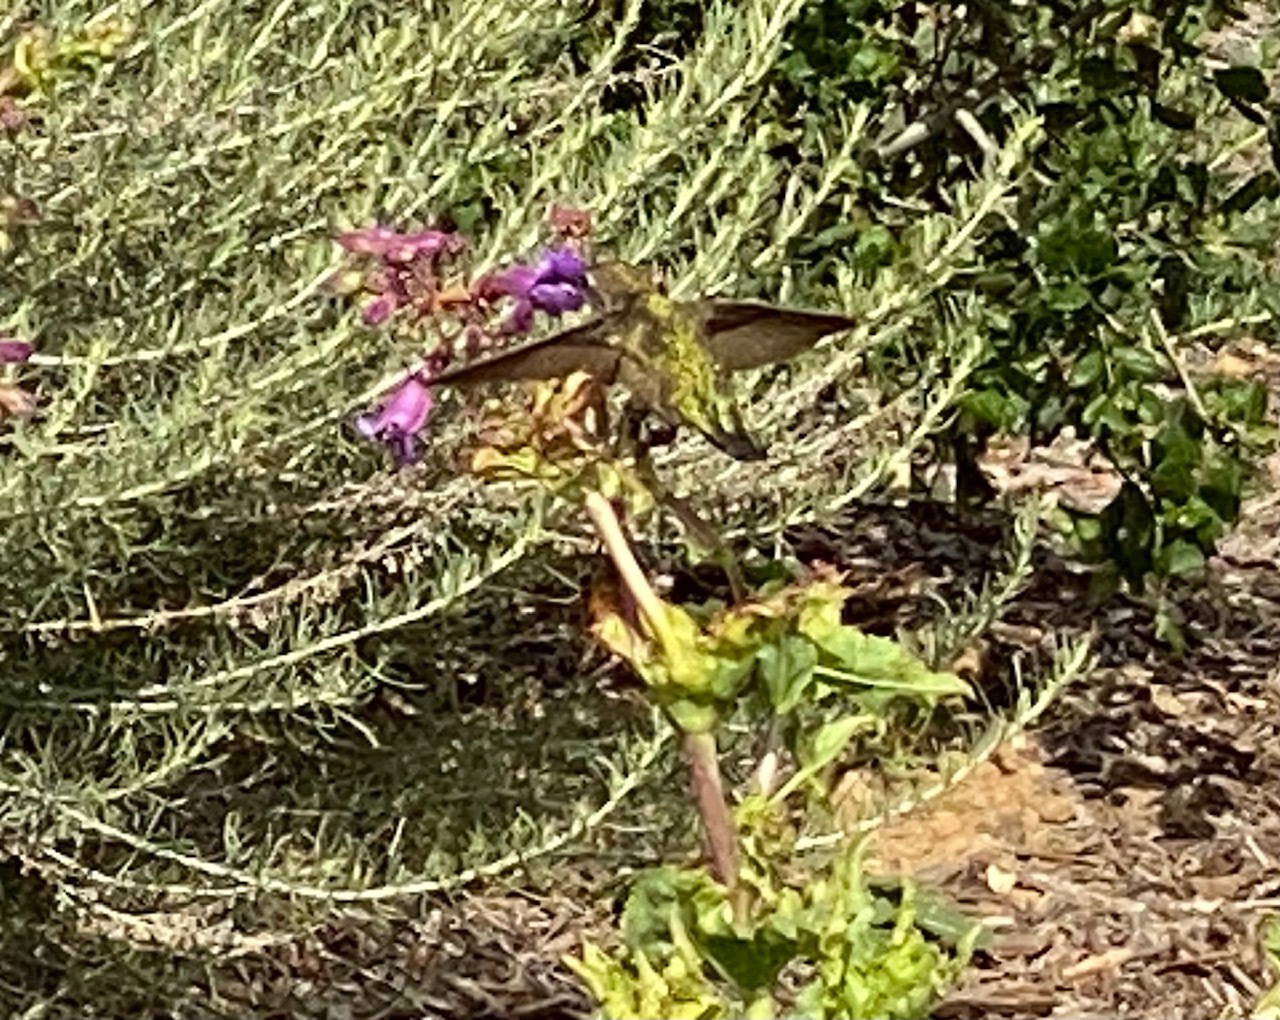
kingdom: Animalia
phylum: Chordata
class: Aves
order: Apodiformes
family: Trochilidae
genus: Calypte
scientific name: Calypte anna
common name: Anna's hummingbird
